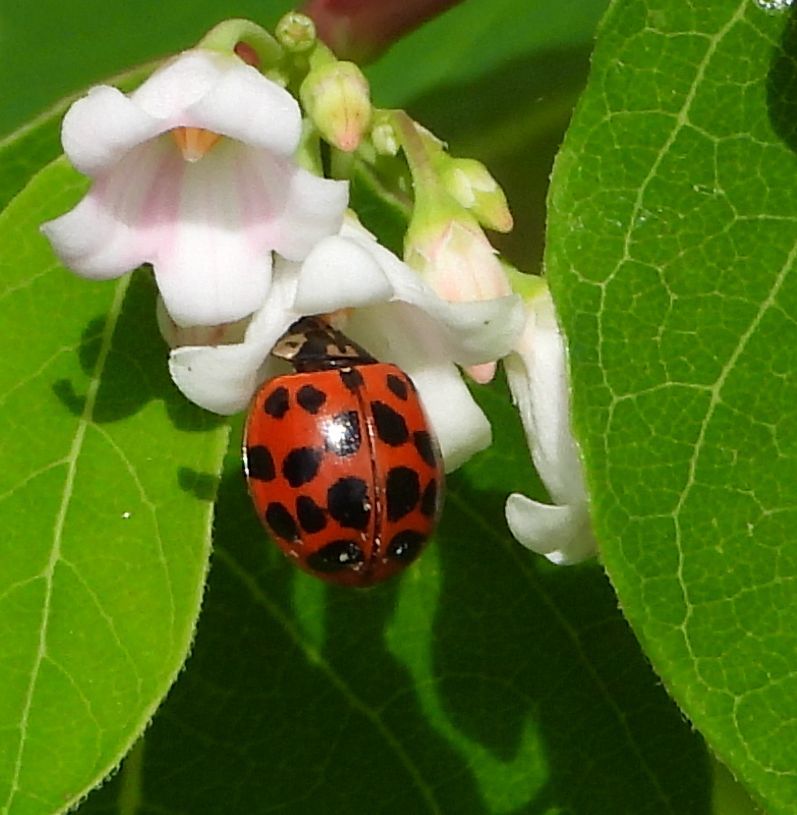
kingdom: Animalia
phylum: Arthropoda
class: Insecta
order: Coleoptera
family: Coccinellidae
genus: Harmonia
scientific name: Harmonia axyridis
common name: Harlequin ladybird
